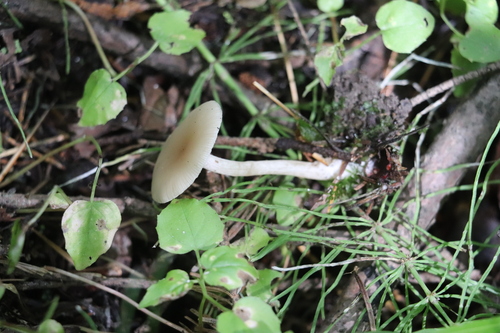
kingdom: Fungi
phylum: Basidiomycota
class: Agaricomycetes
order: Agaricales
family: Tricholomataceae
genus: Clitocybe
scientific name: Clitocybe
